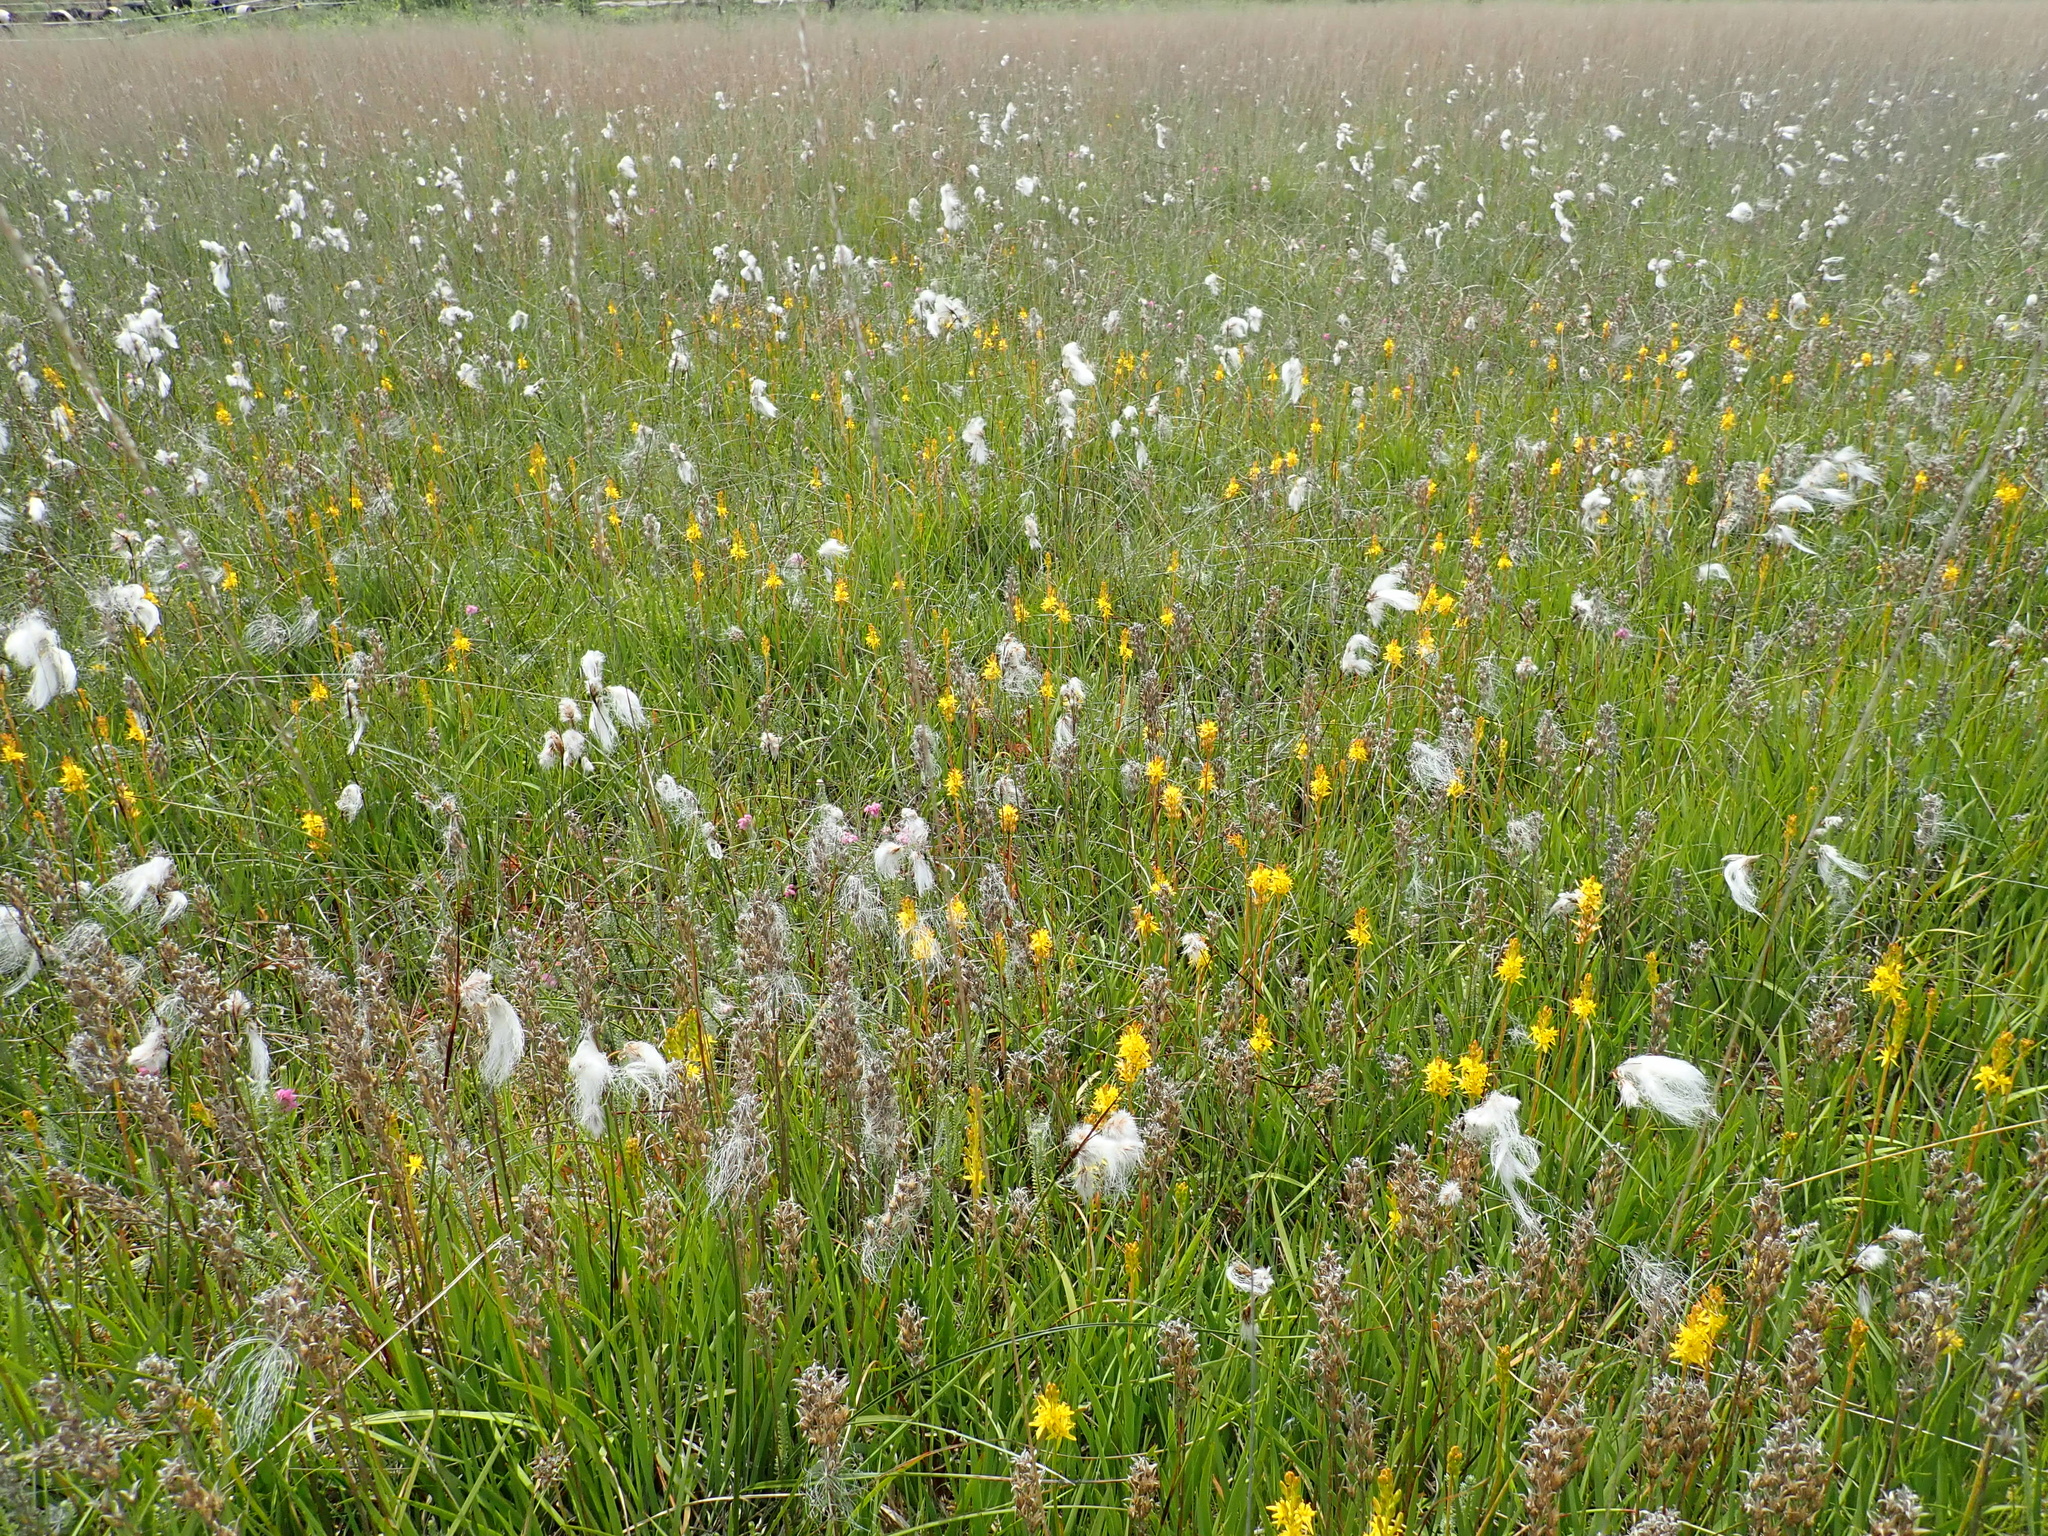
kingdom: Plantae
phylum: Tracheophyta
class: Liliopsida
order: Poales
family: Cyperaceae
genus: Eriophorum
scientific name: Eriophorum angustifolium
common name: Common cottongrass
